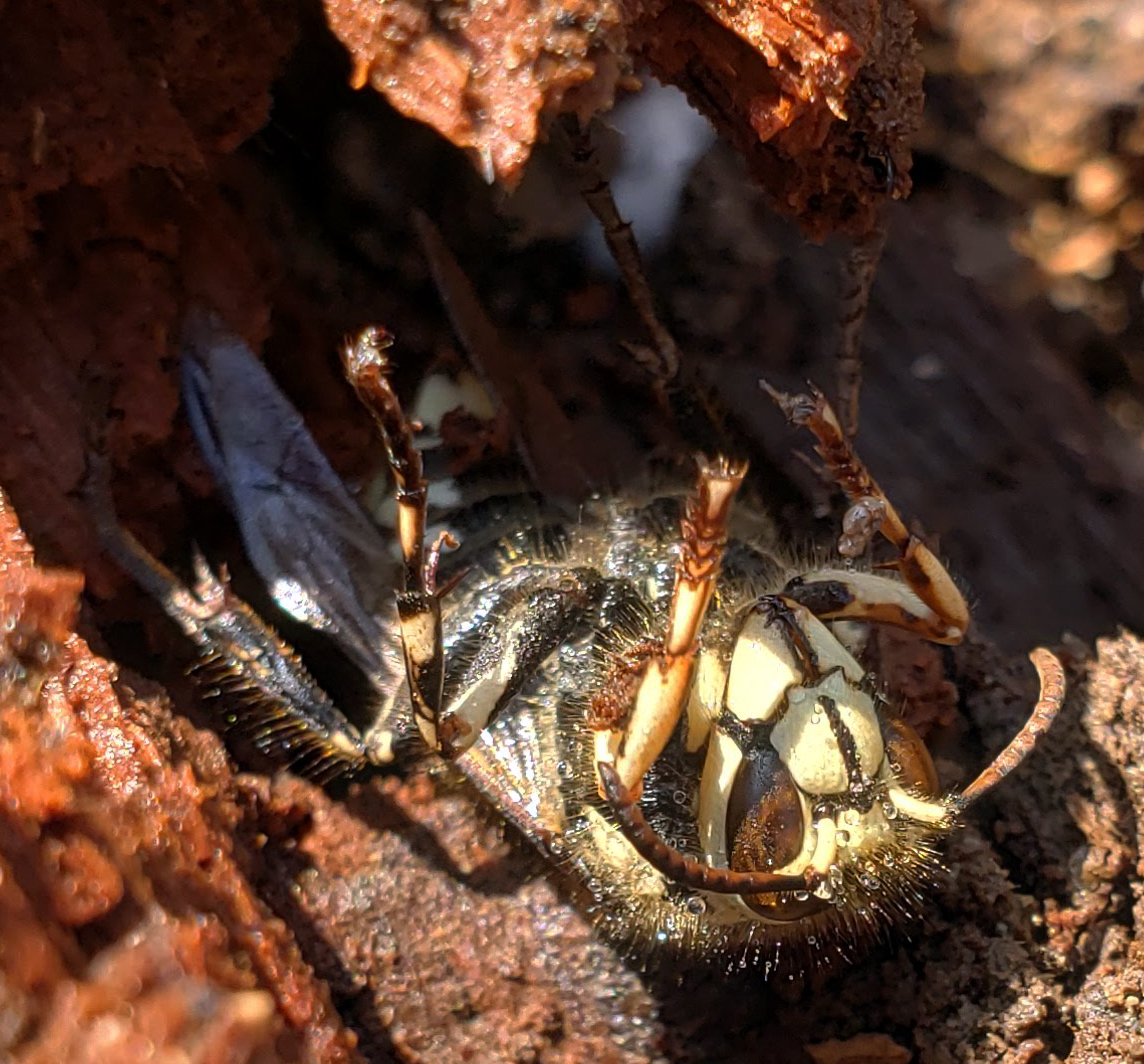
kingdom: Animalia
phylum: Arthropoda
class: Insecta
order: Hymenoptera
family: Vespidae
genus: Dolichovespula
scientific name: Dolichovespula maculata
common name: Bald-faced hornet
